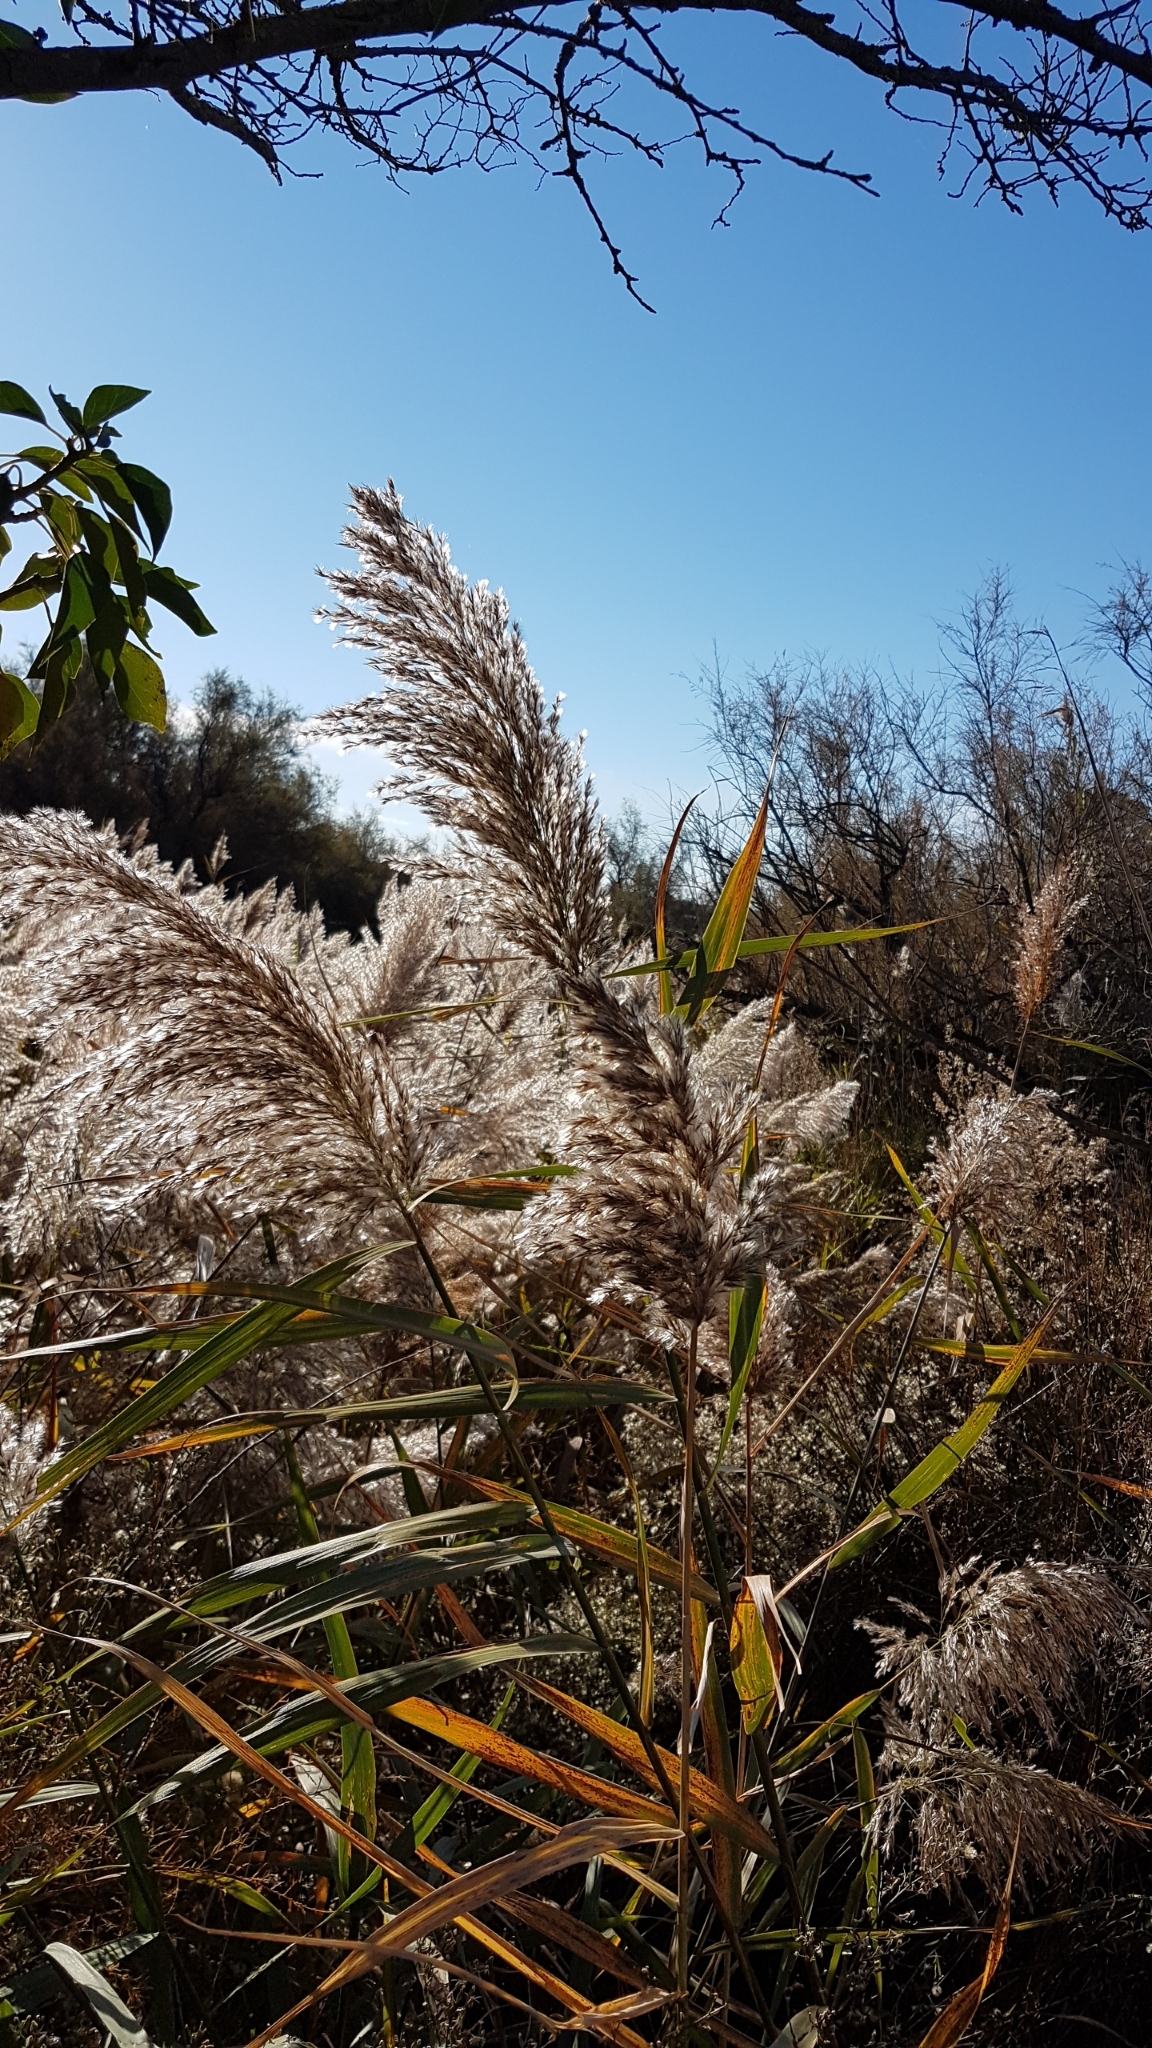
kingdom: Plantae
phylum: Tracheophyta
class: Liliopsida
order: Poales
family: Poaceae
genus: Phragmites
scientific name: Phragmites australis
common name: Common reed
